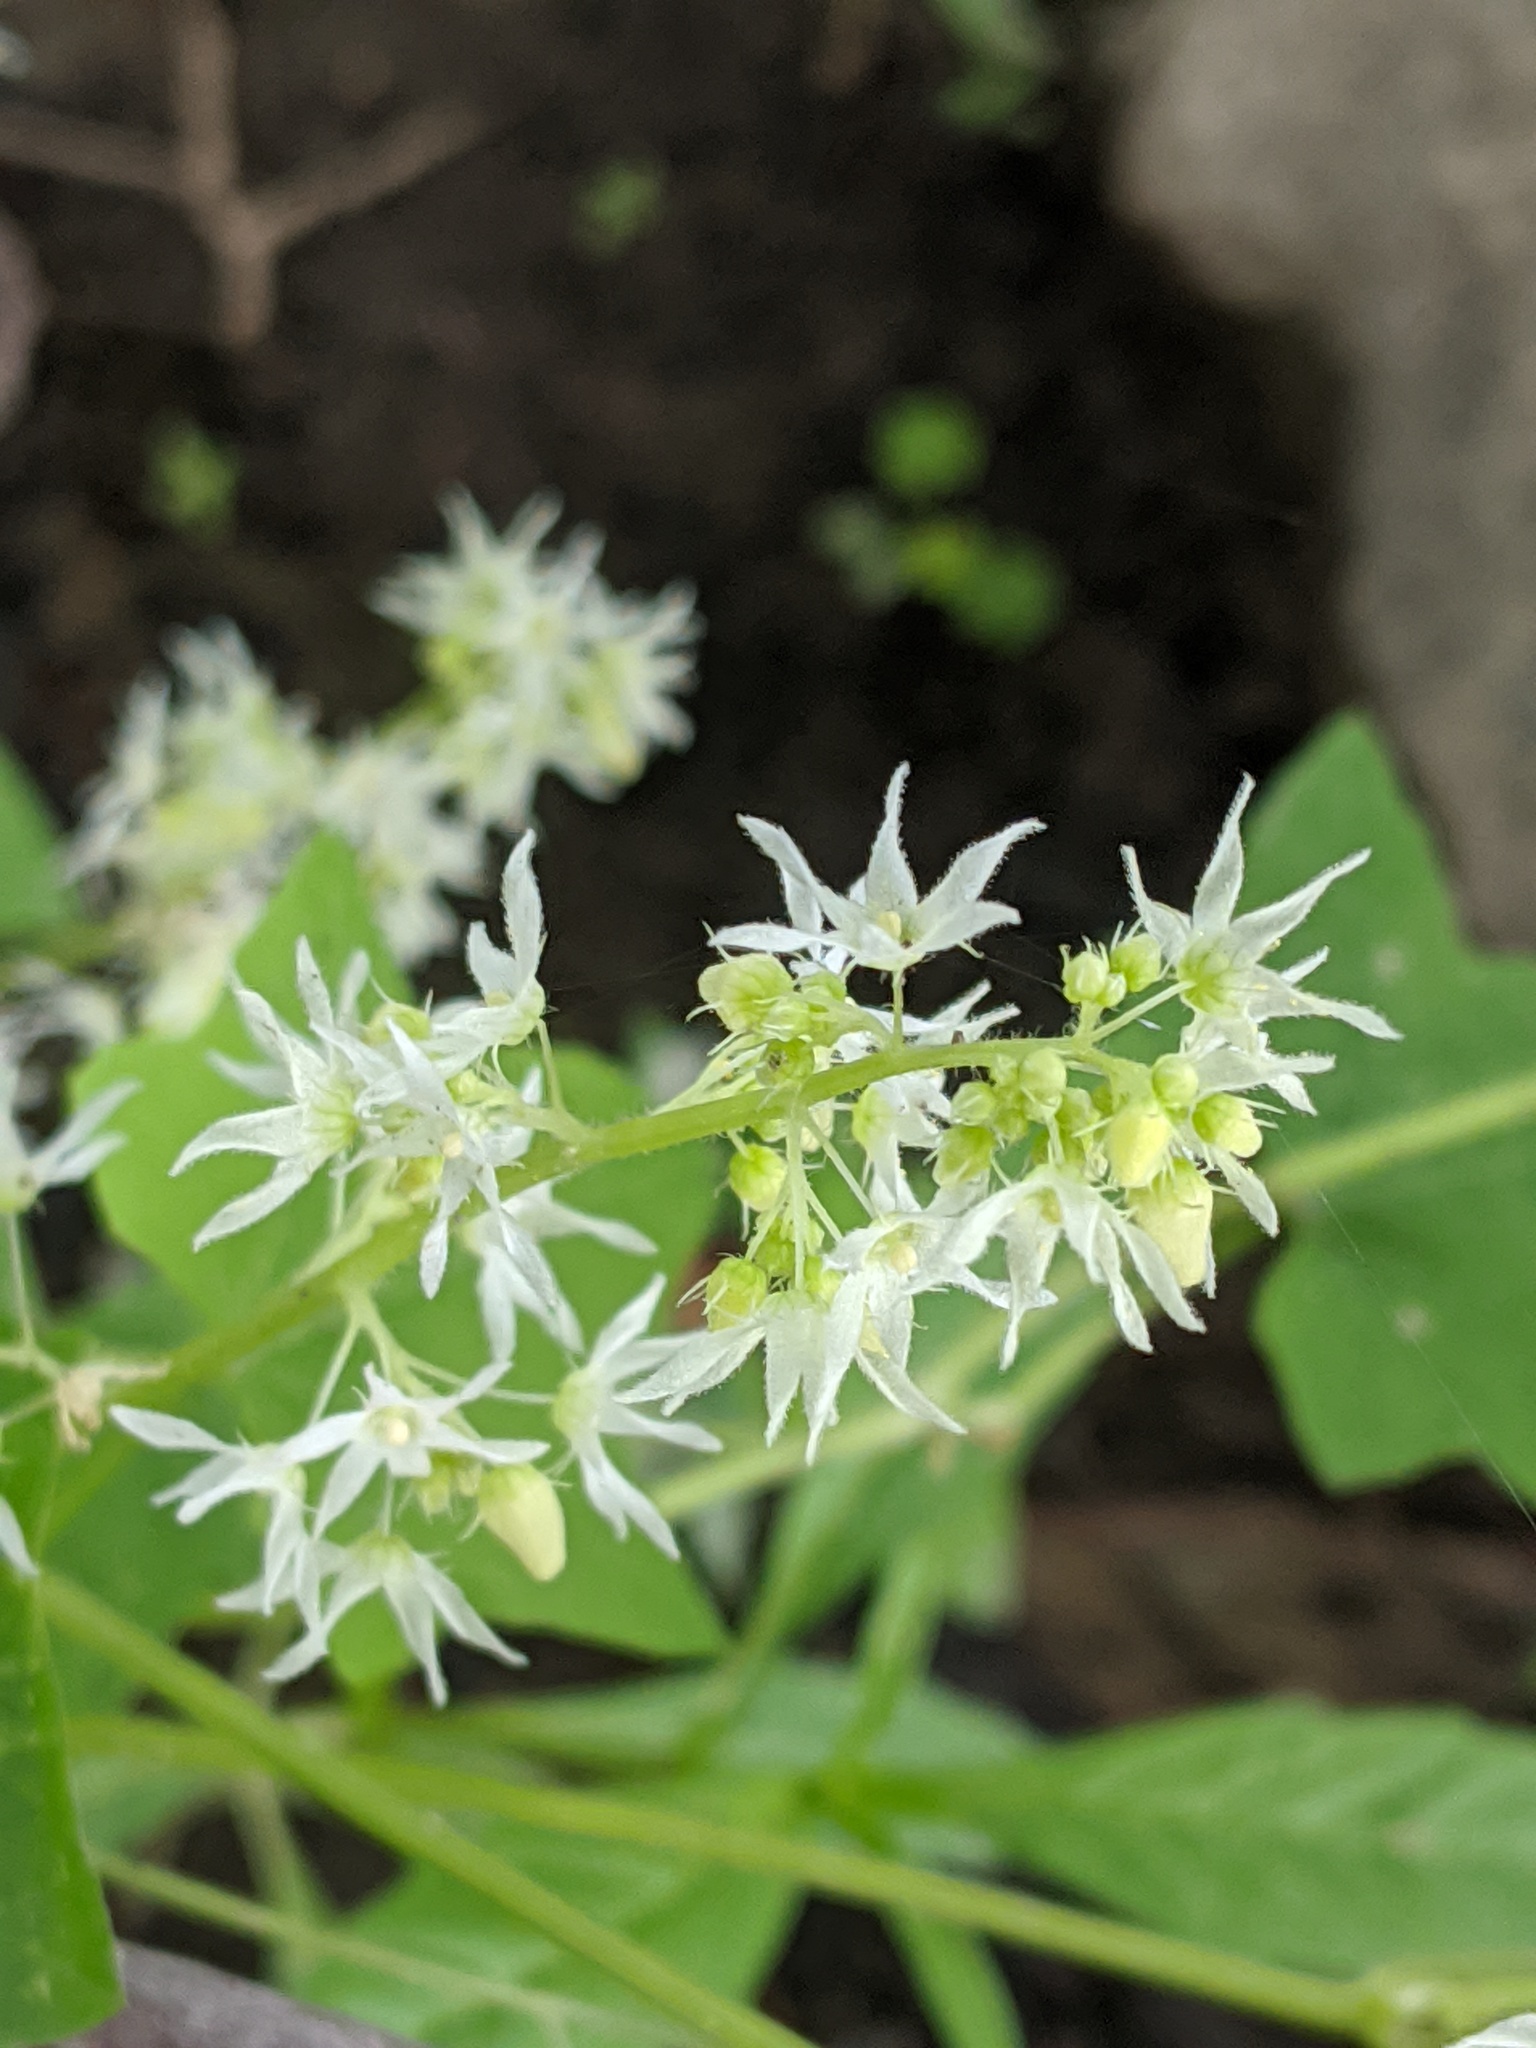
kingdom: Plantae
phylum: Tracheophyta
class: Magnoliopsida
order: Cucurbitales
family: Cucurbitaceae
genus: Echinocystis
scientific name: Echinocystis lobata
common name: Wild cucumber
